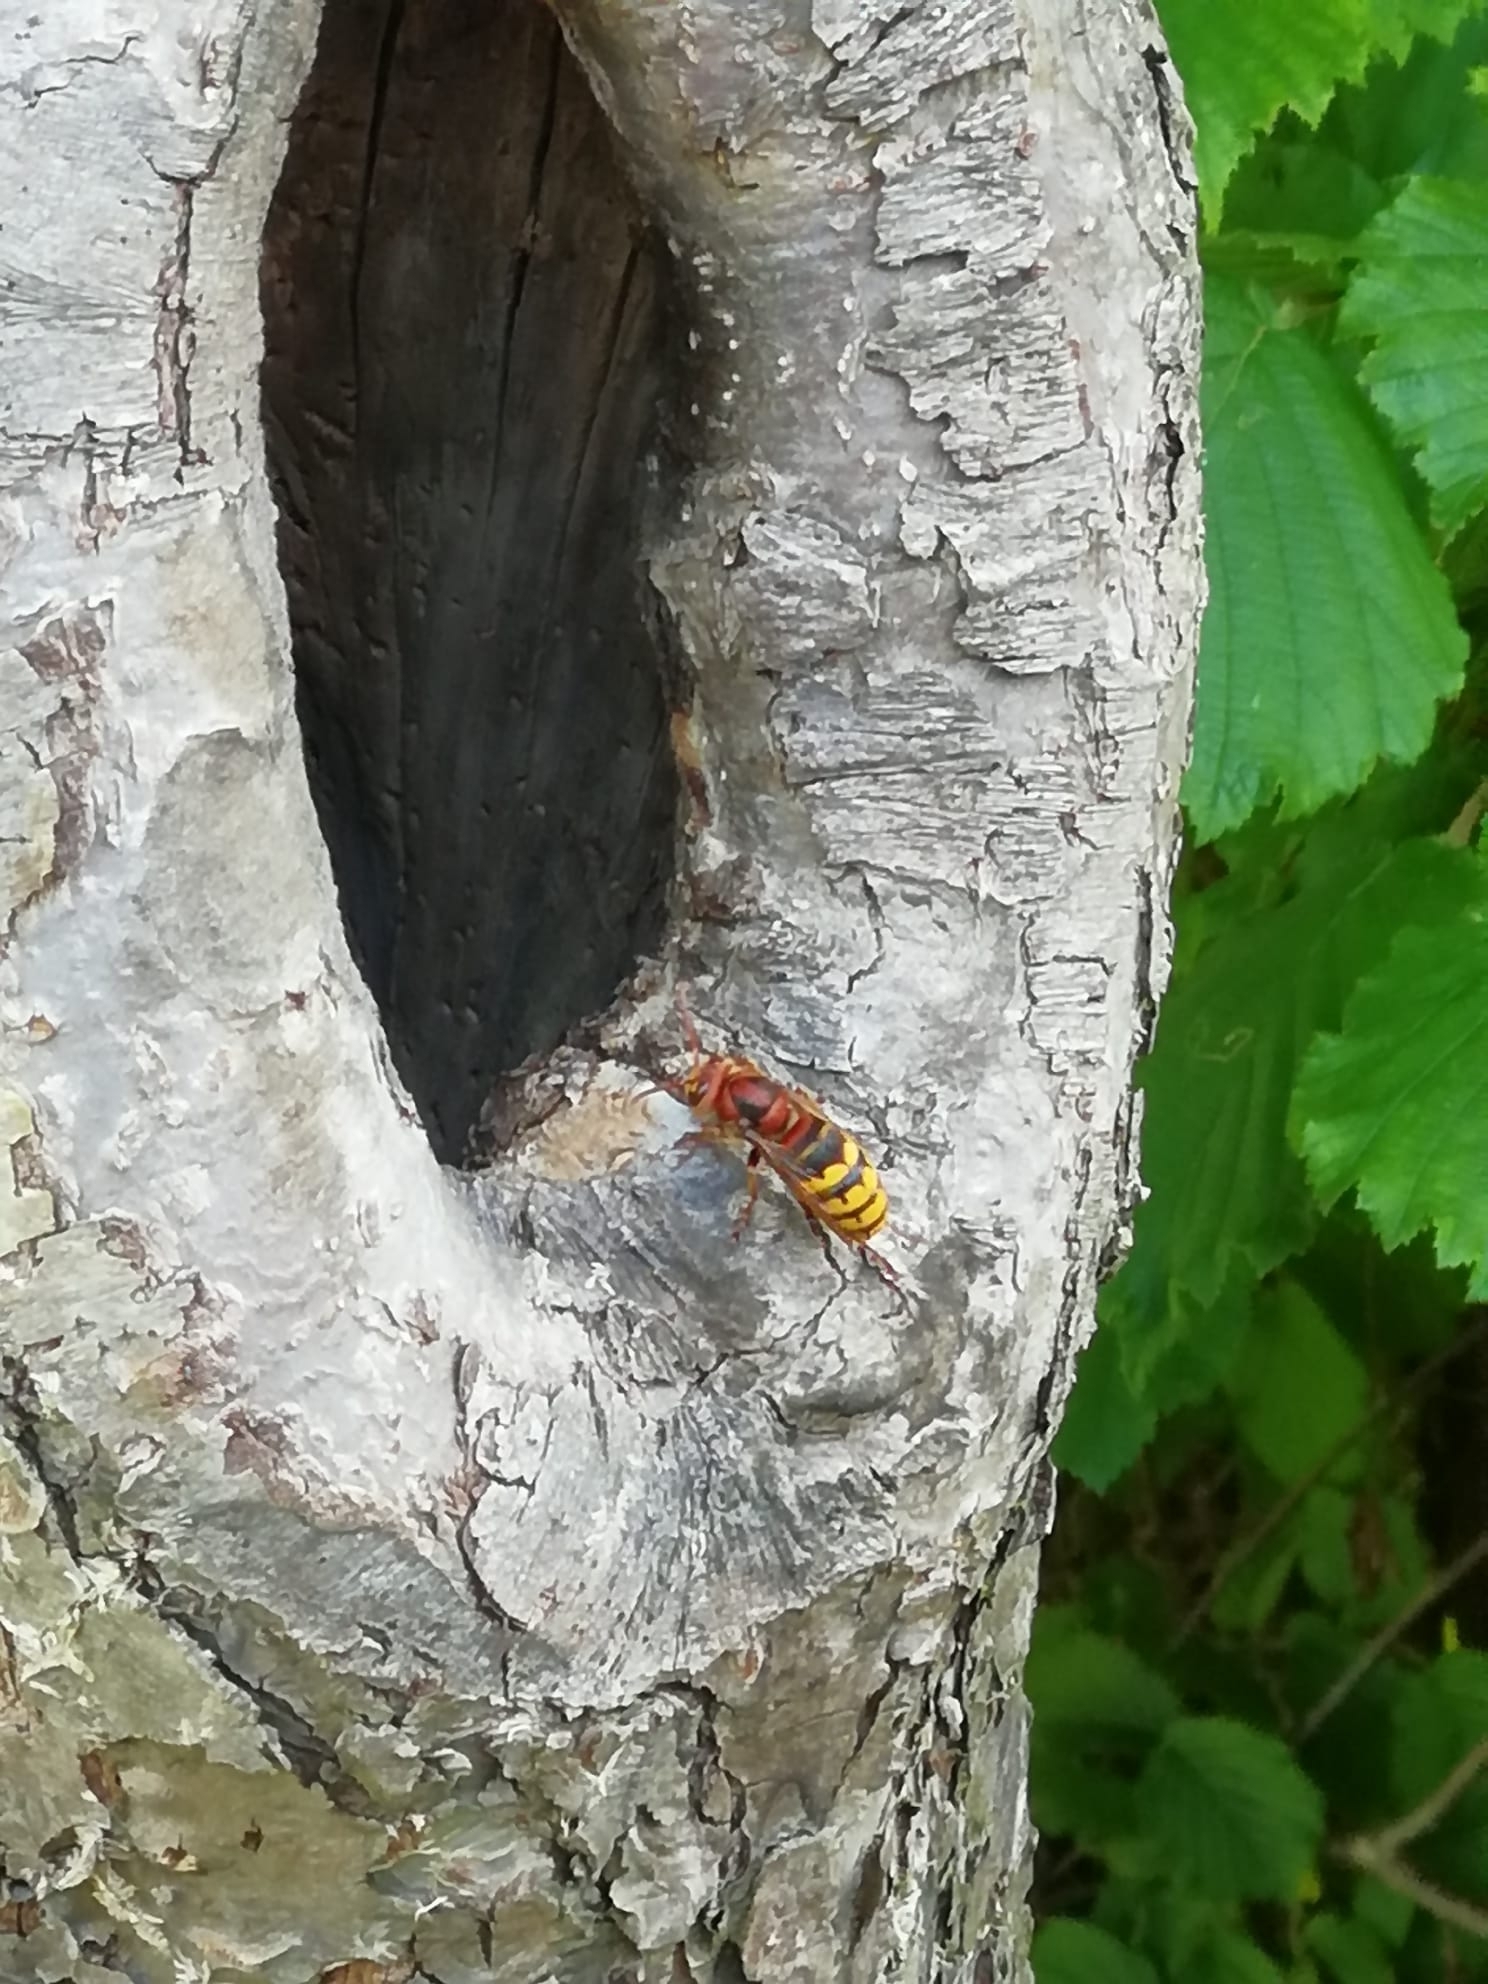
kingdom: Animalia
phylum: Arthropoda
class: Insecta
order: Hymenoptera
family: Vespidae
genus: Vespa
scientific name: Vespa crabro
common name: Hornet
